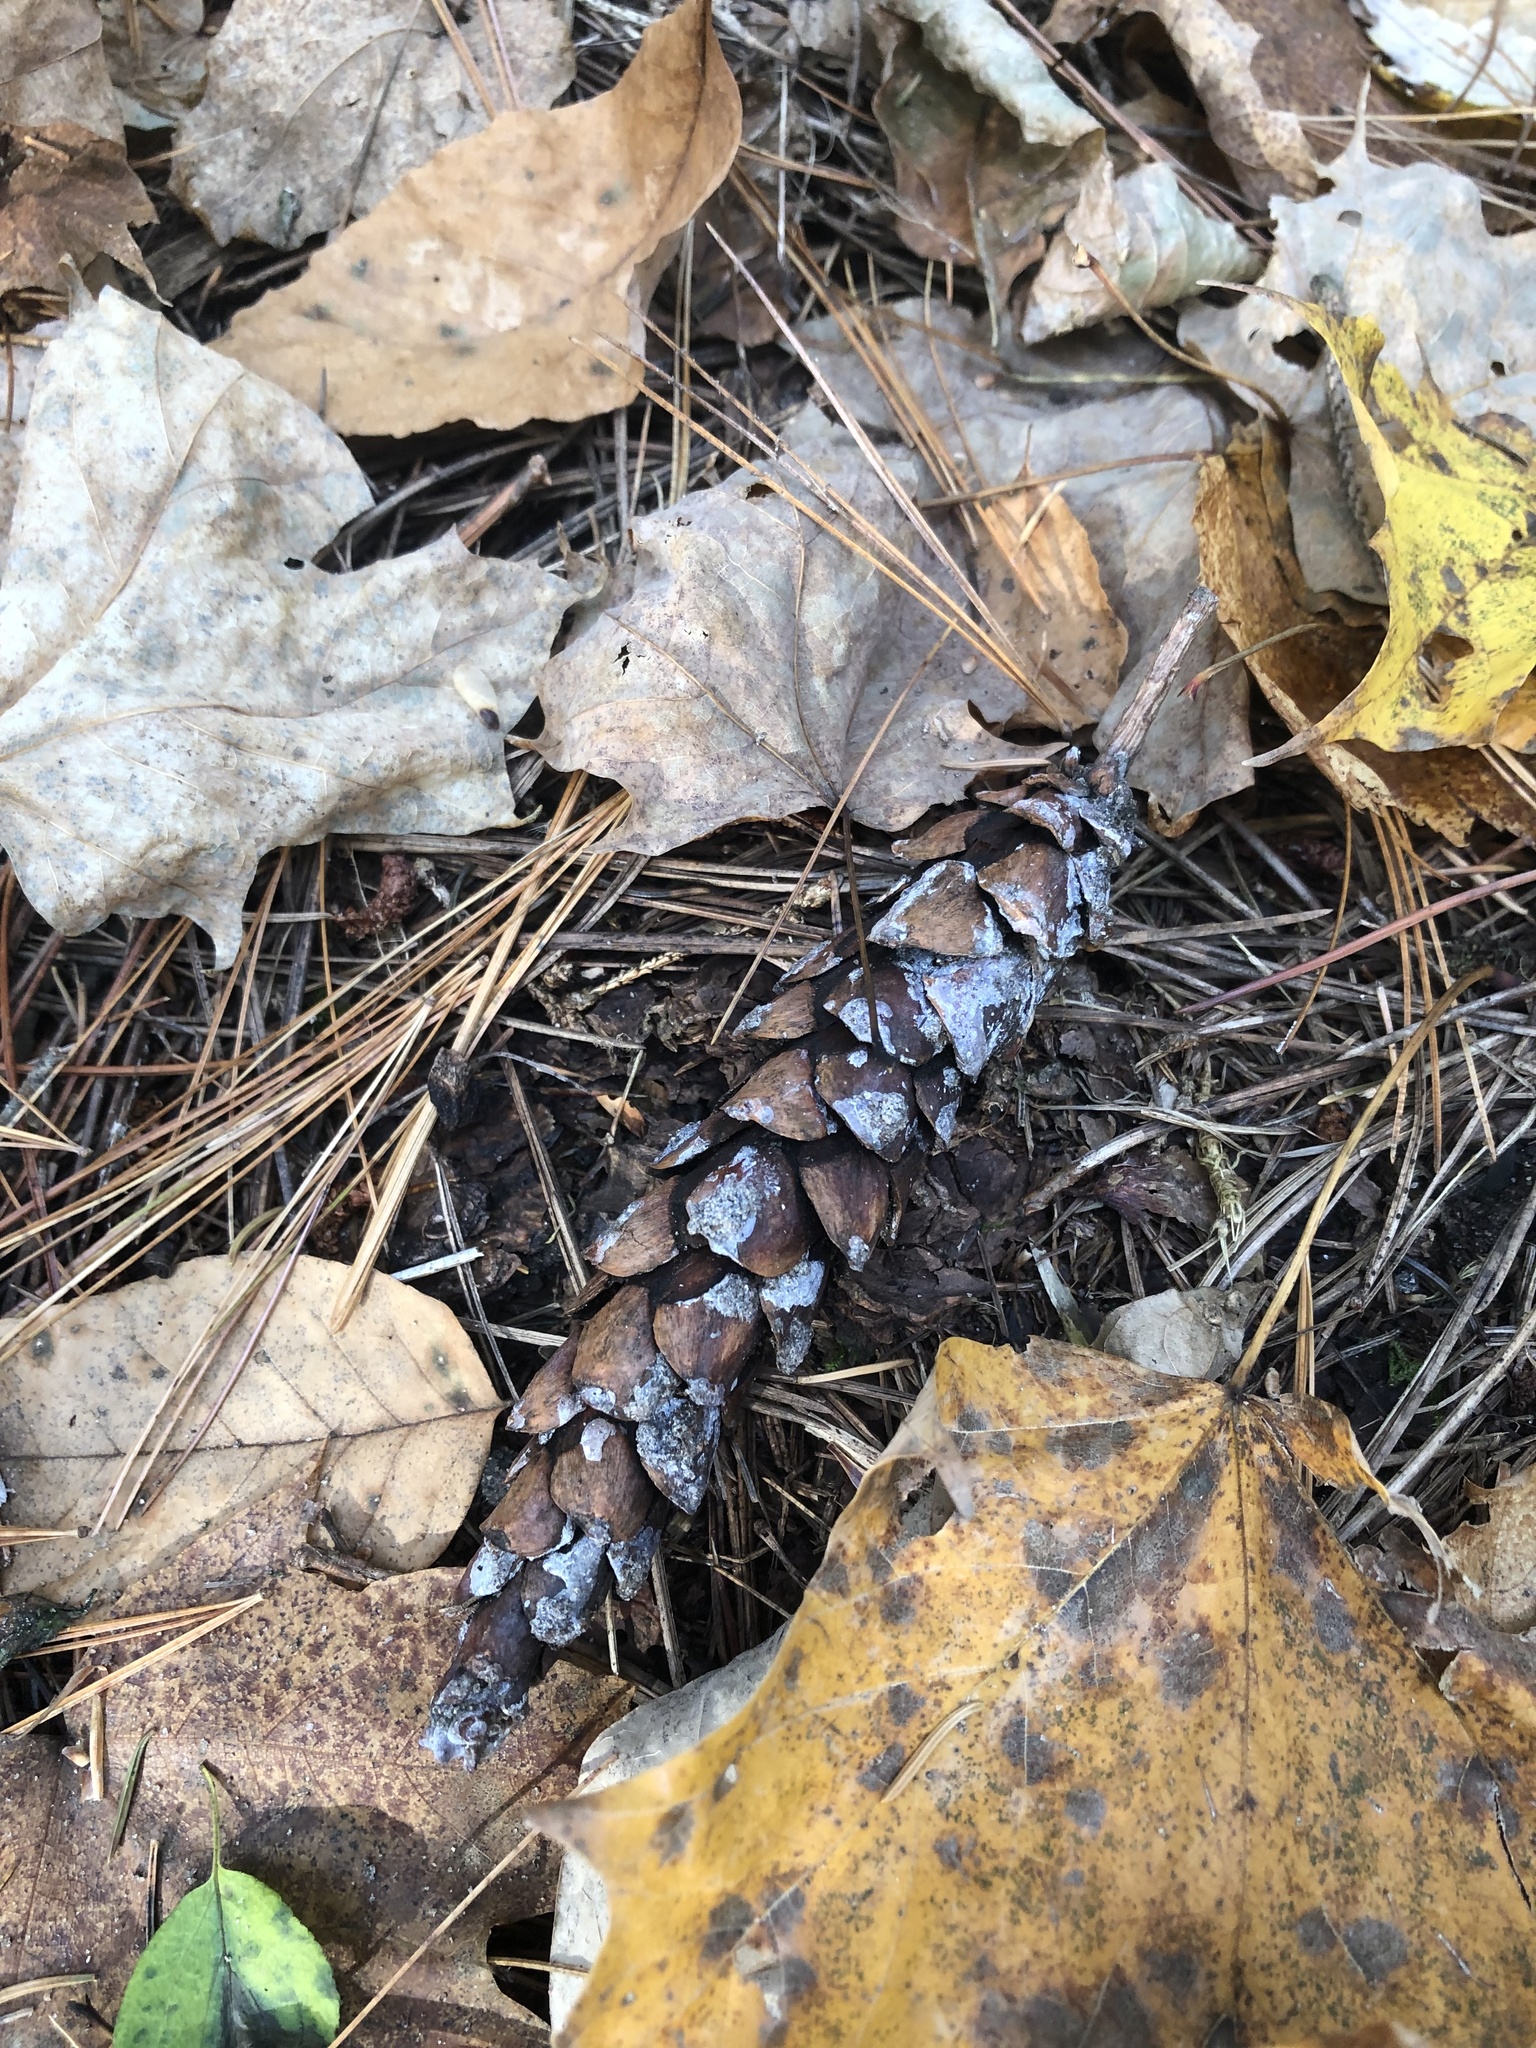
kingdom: Plantae
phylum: Tracheophyta
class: Pinopsida
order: Pinales
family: Pinaceae
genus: Pinus
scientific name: Pinus strobus
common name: Weymouth pine
